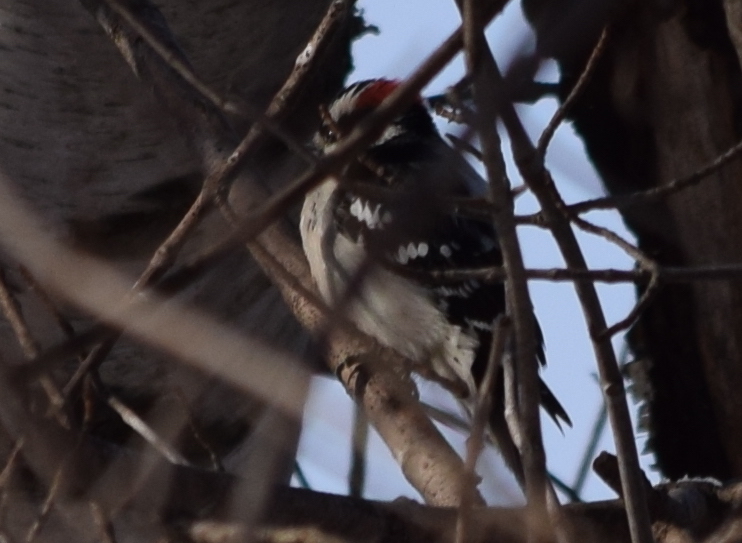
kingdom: Animalia
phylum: Chordata
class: Aves
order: Piciformes
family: Picidae
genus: Dryobates
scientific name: Dryobates pubescens
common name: Downy woodpecker
